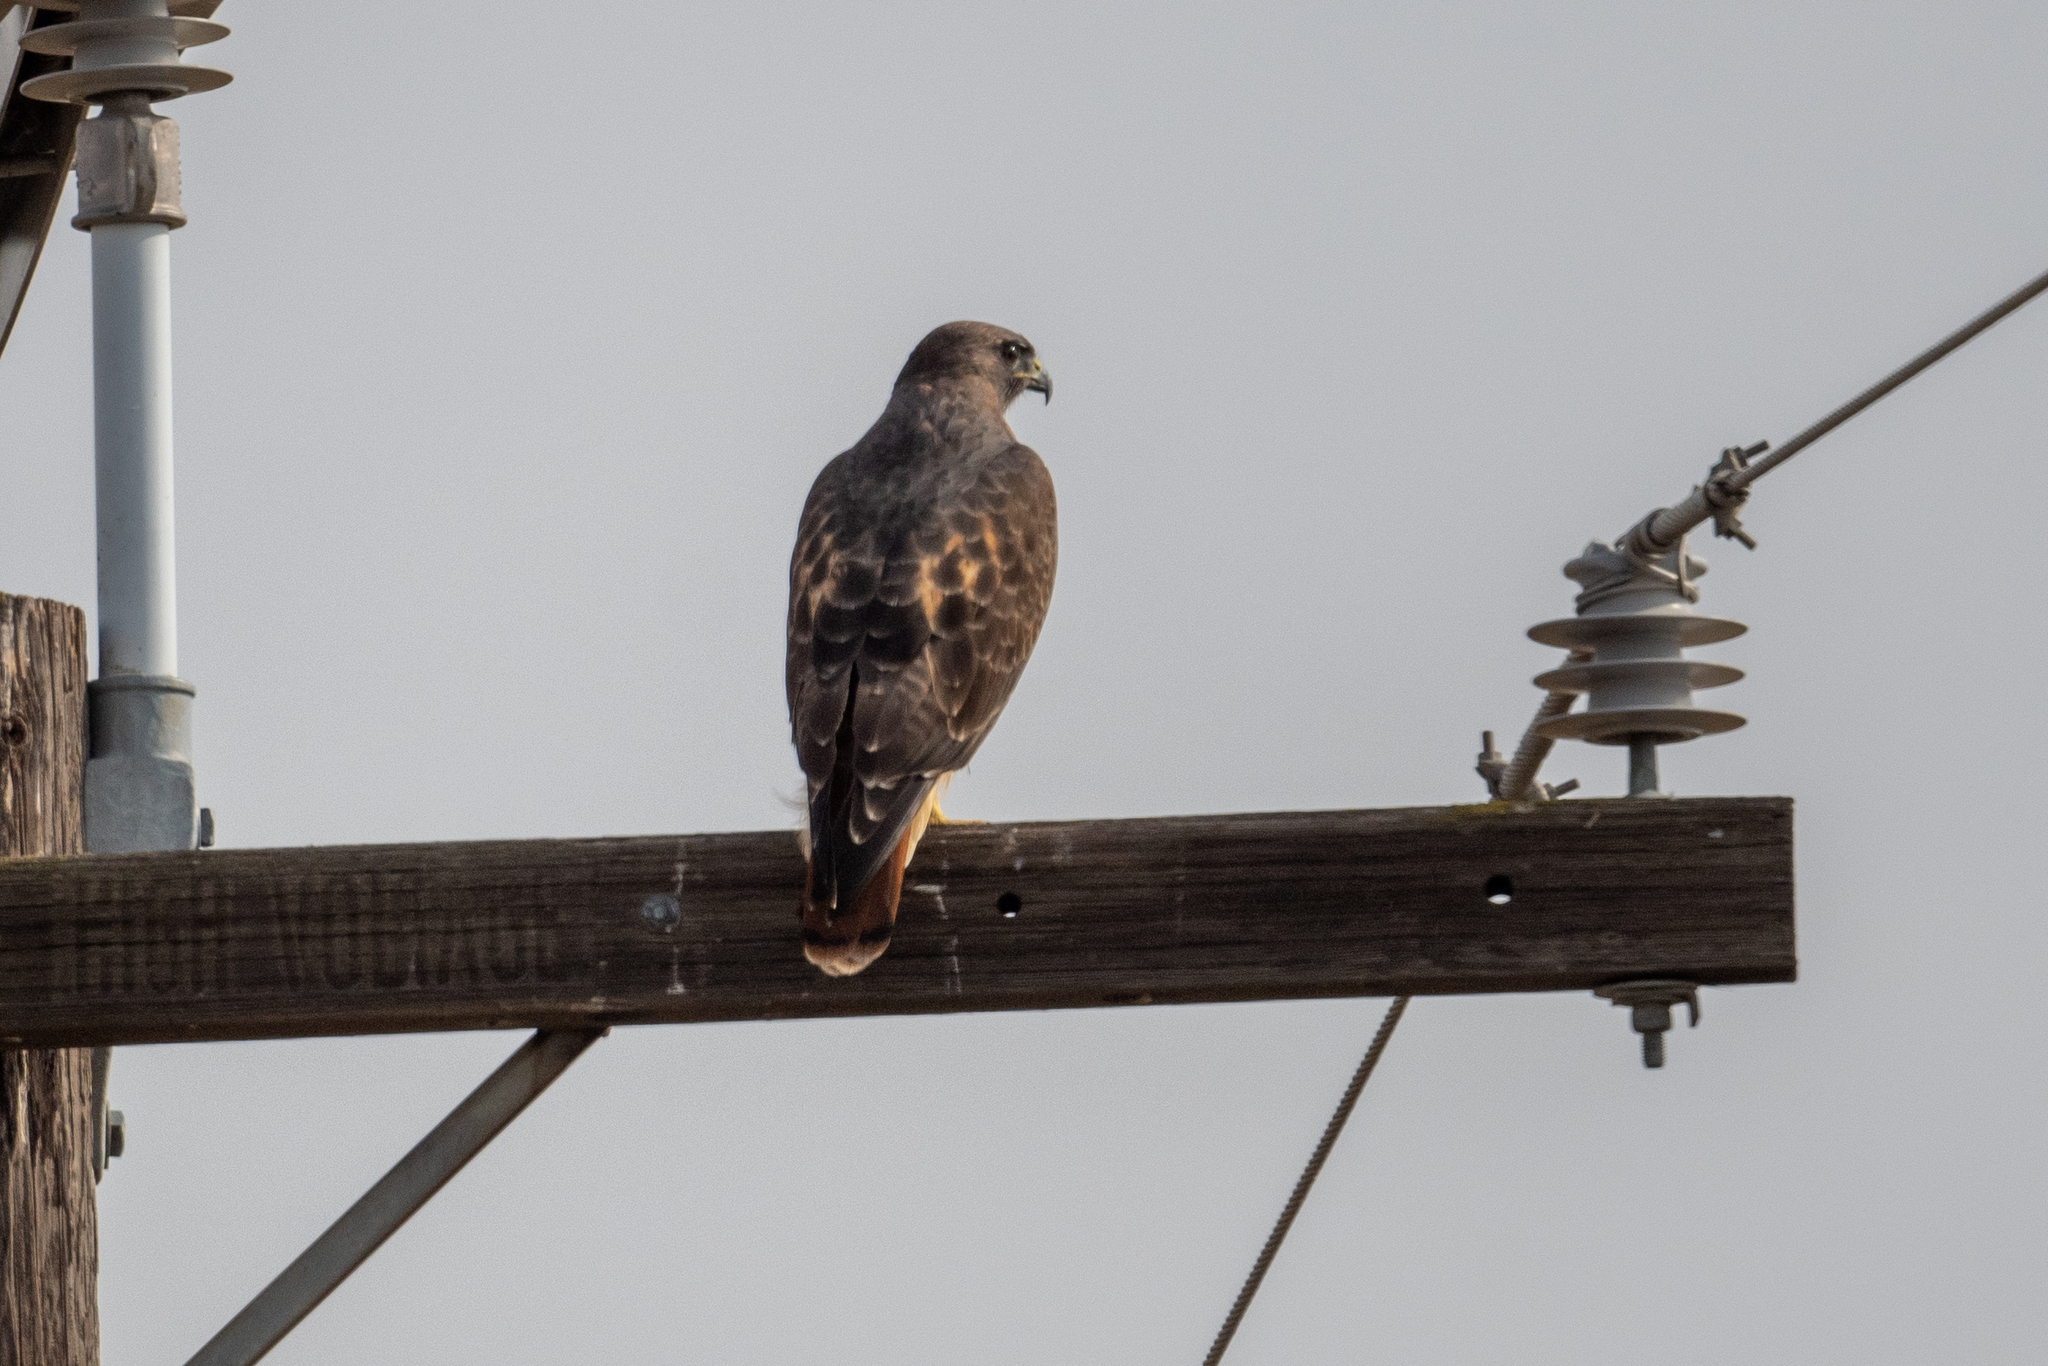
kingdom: Animalia
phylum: Chordata
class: Aves
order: Accipitriformes
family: Accipitridae
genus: Buteo
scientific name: Buteo jamaicensis
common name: Red-tailed hawk
